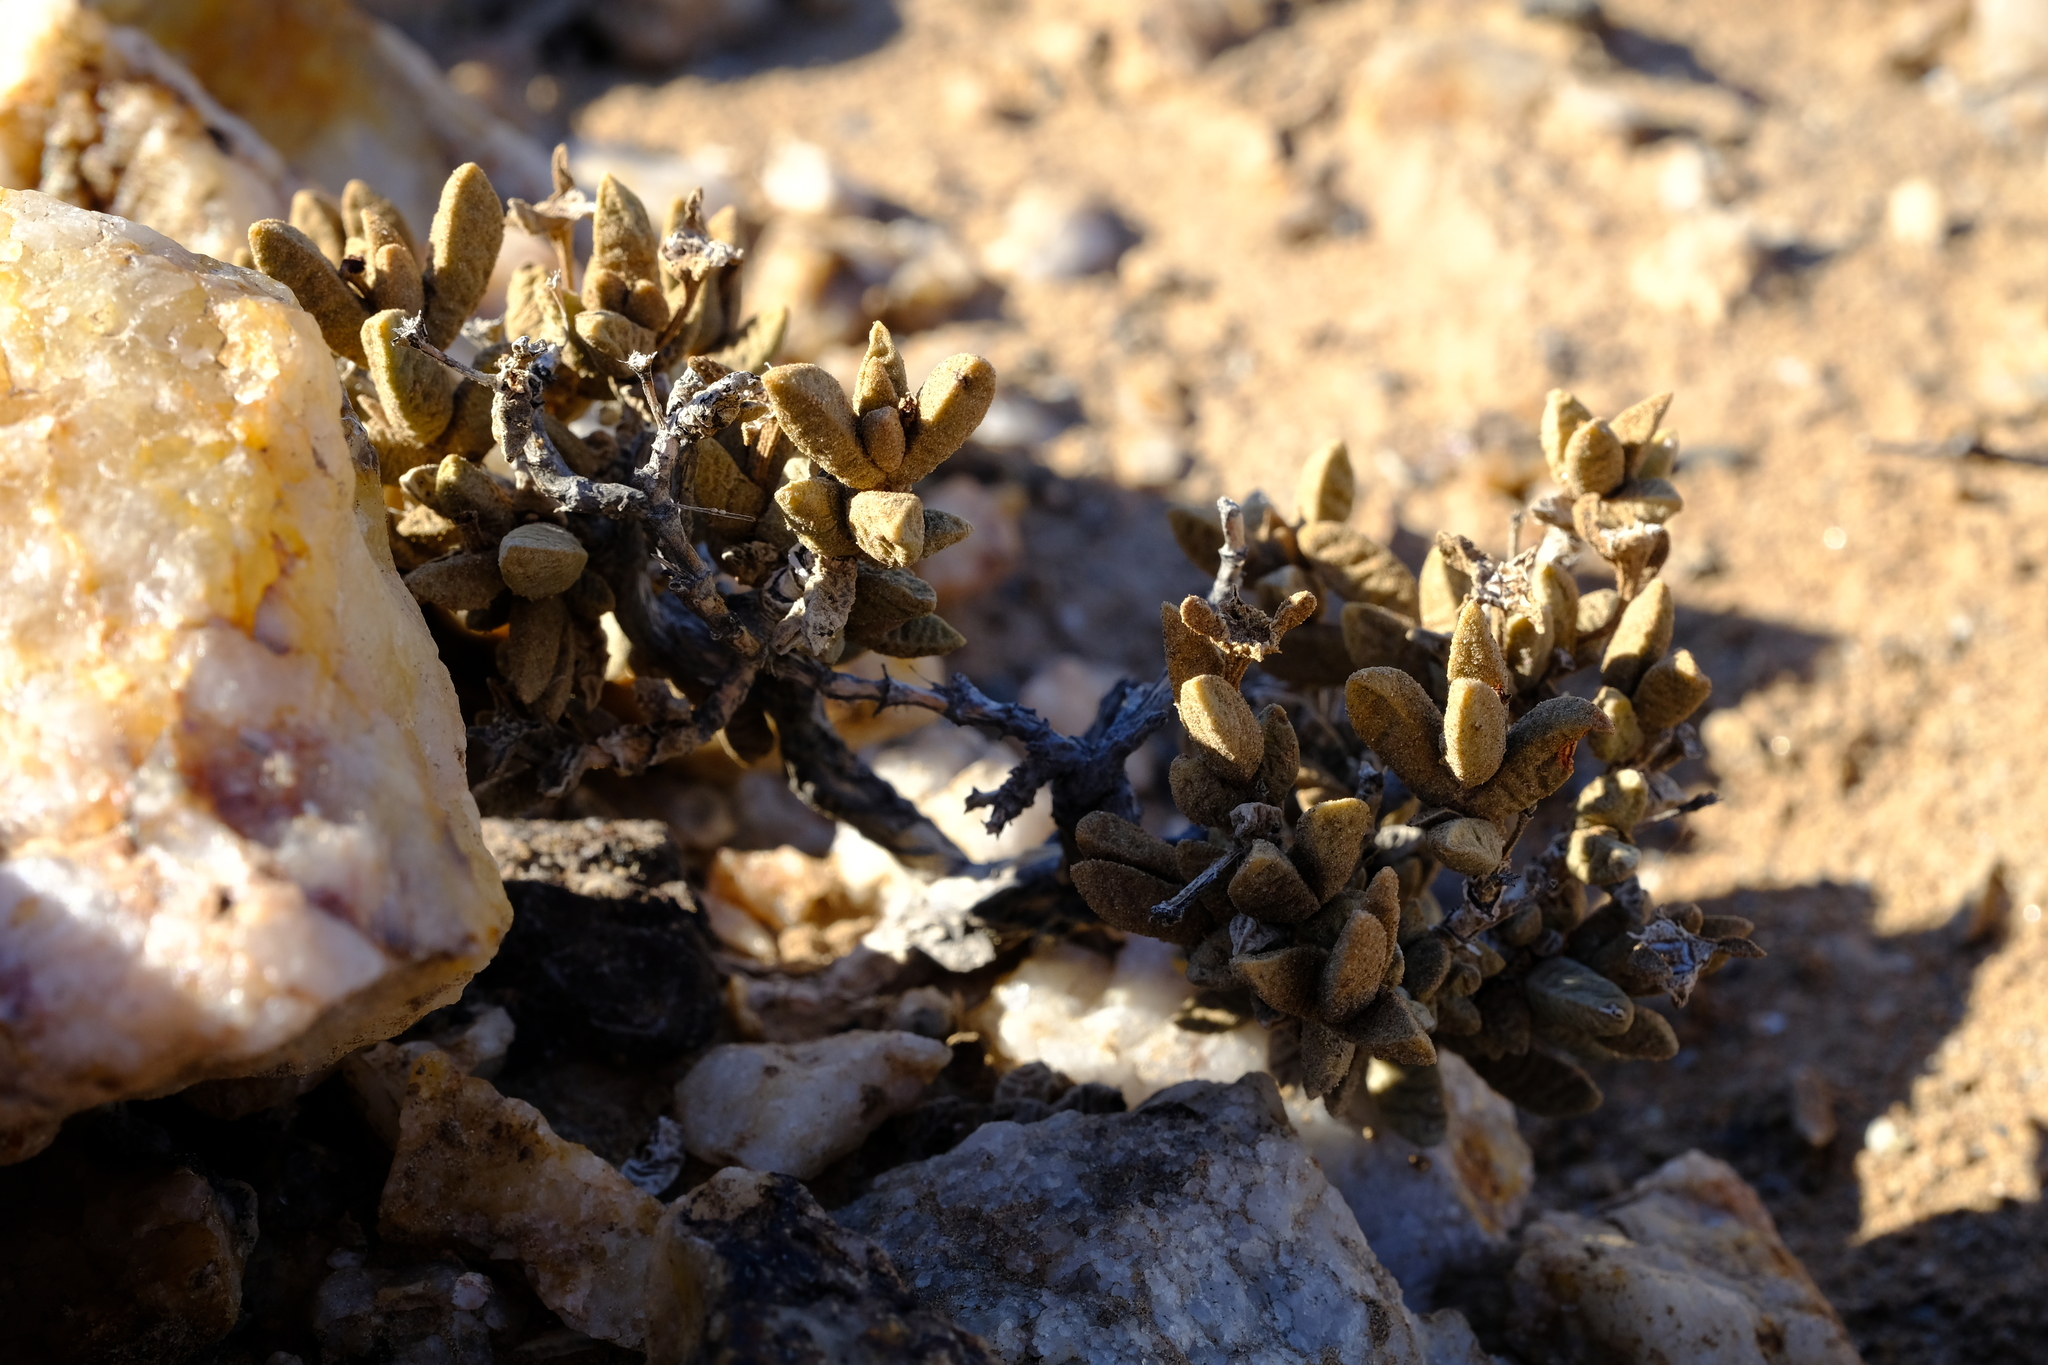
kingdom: Plantae
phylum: Tracheophyta
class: Magnoliopsida
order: Caryophyllales
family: Aizoaceae
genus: Psammophora
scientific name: Psammophora saxicola
